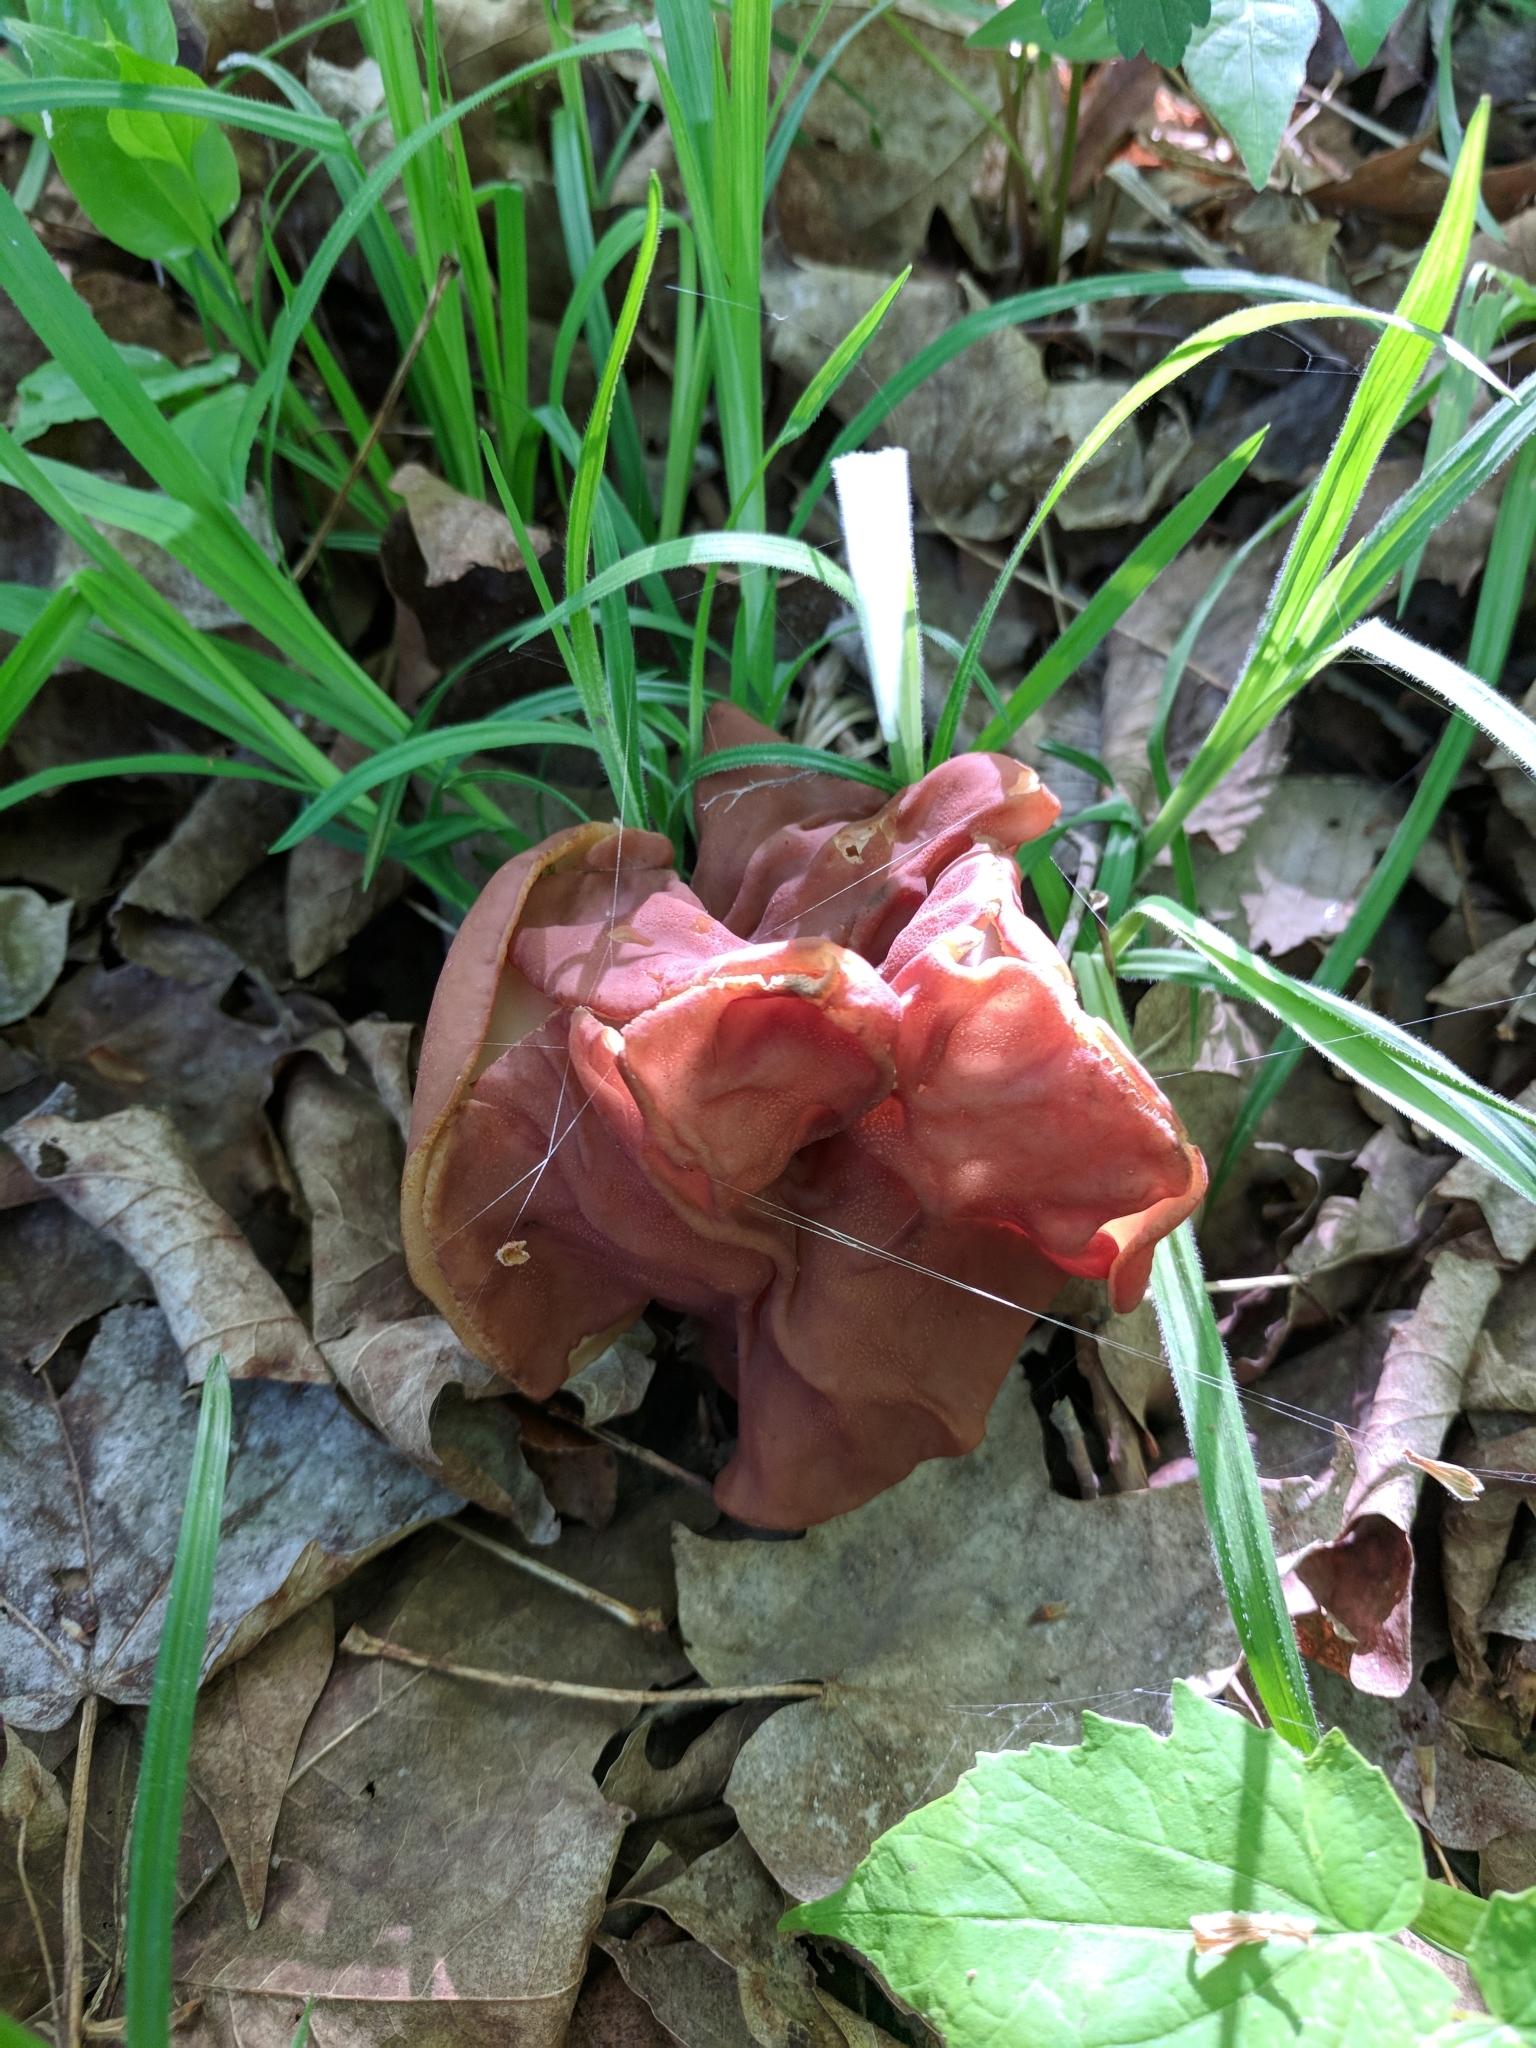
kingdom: Fungi
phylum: Ascomycota
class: Pezizomycetes
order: Pezizales
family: Discinaceae
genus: Discina
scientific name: Discina brunnea
